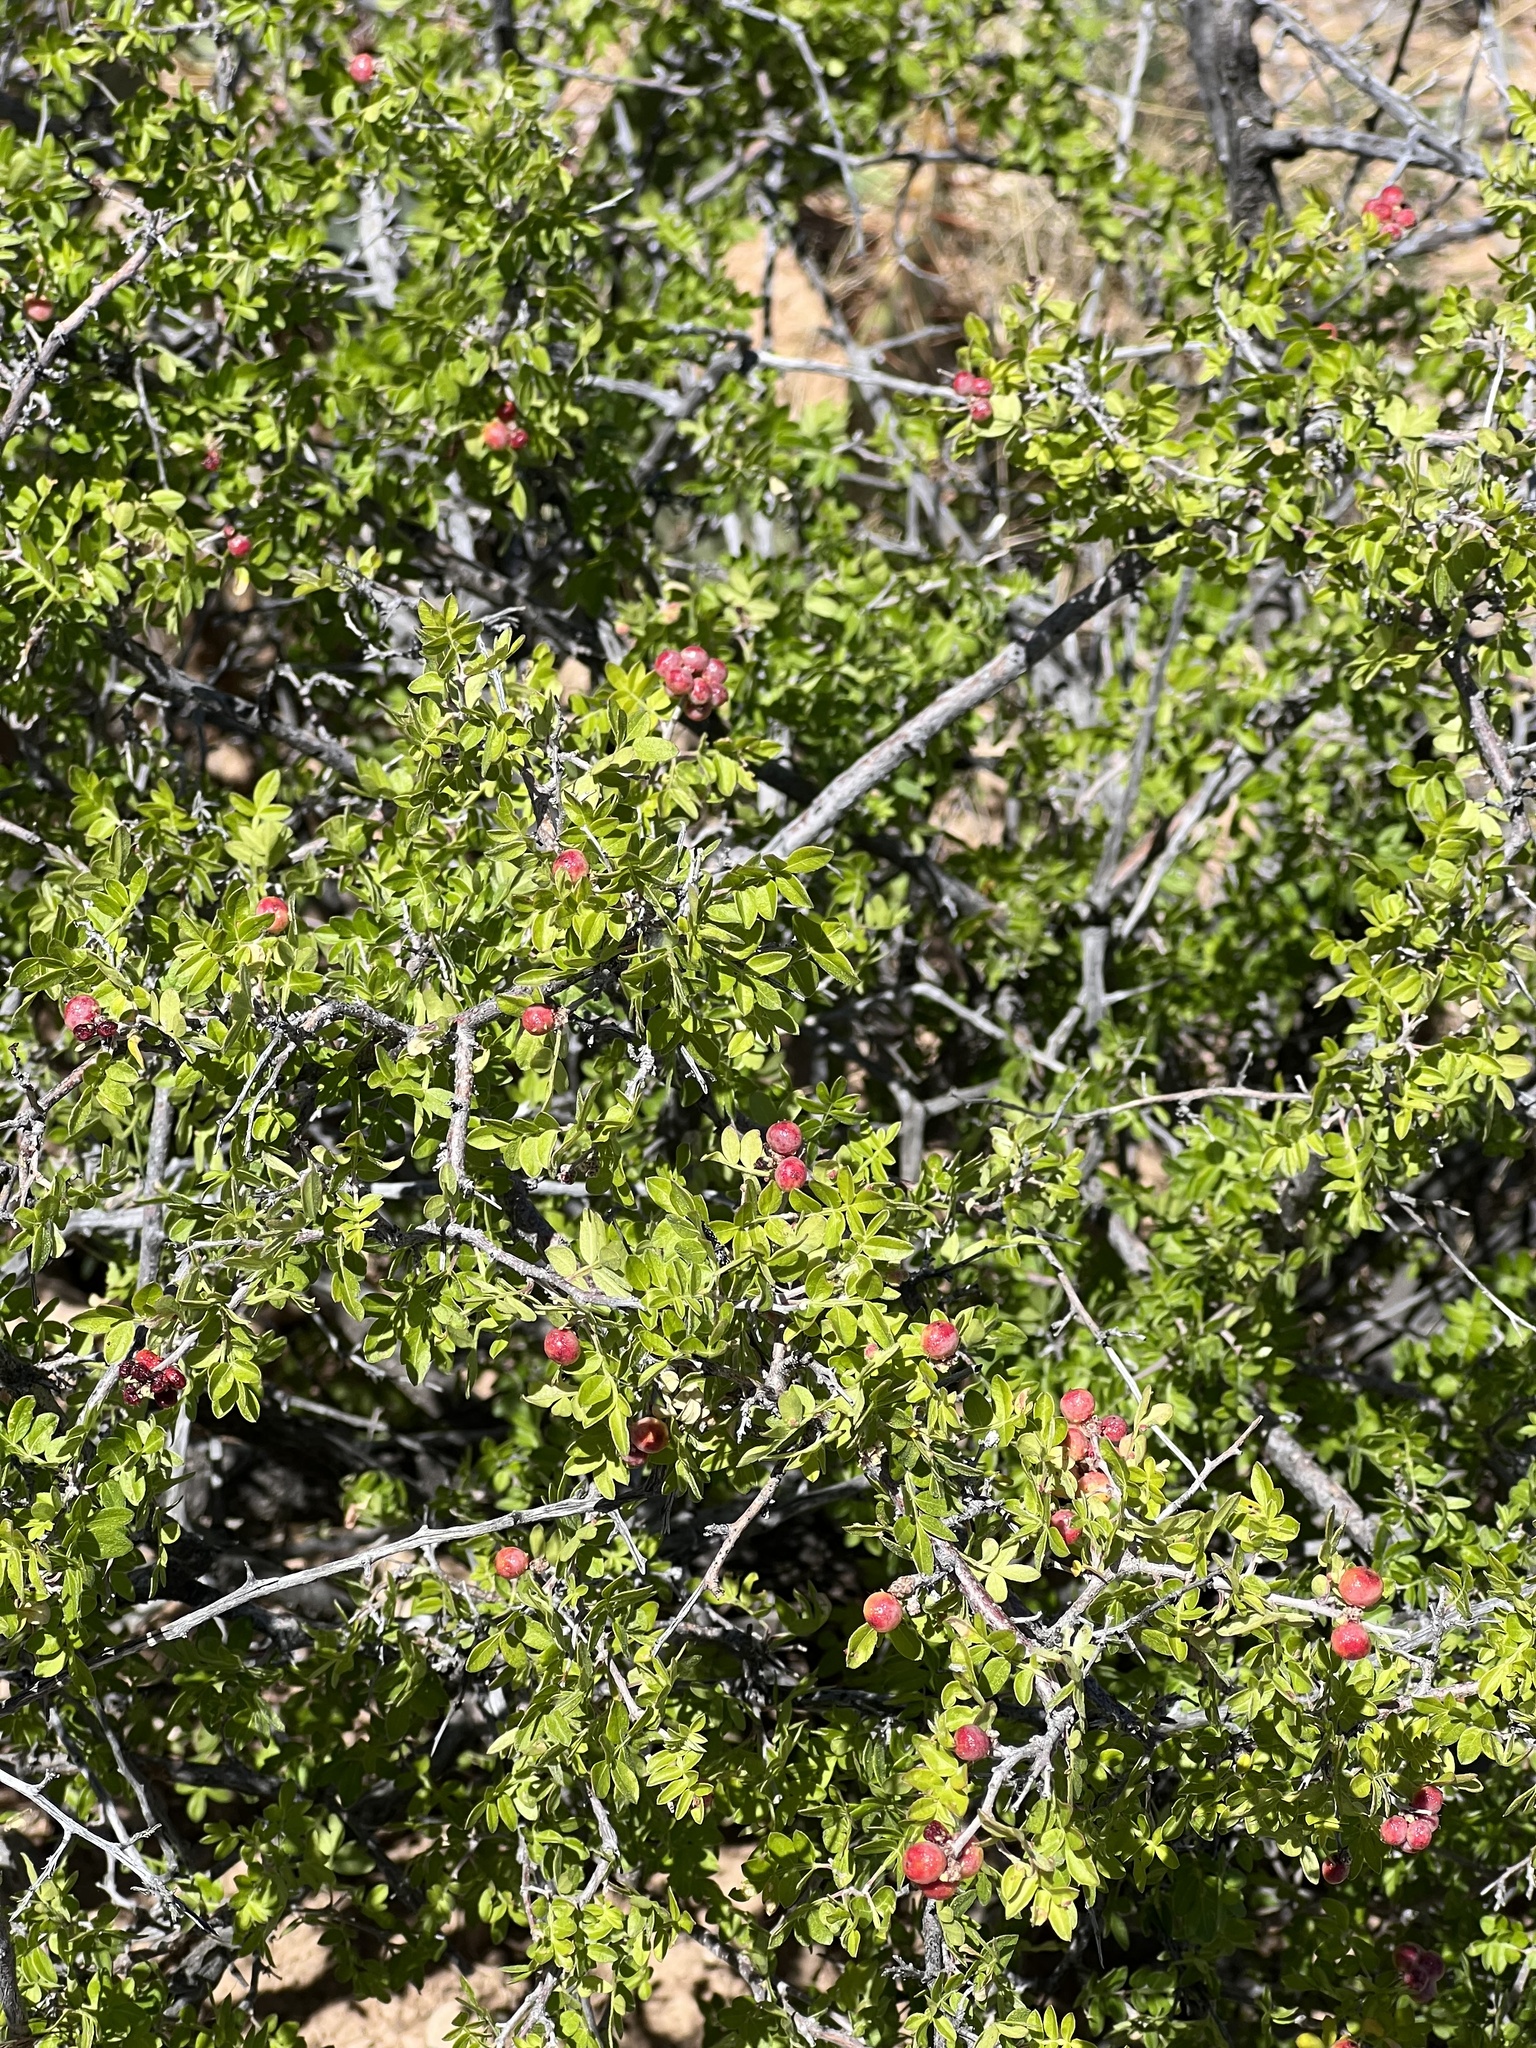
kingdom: Plantae
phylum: Tracheophyta
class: Magnoliopsida
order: Sapindales
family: Anacardiaceae
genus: Rhus
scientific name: Rhus microphylla
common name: Desert sumac
